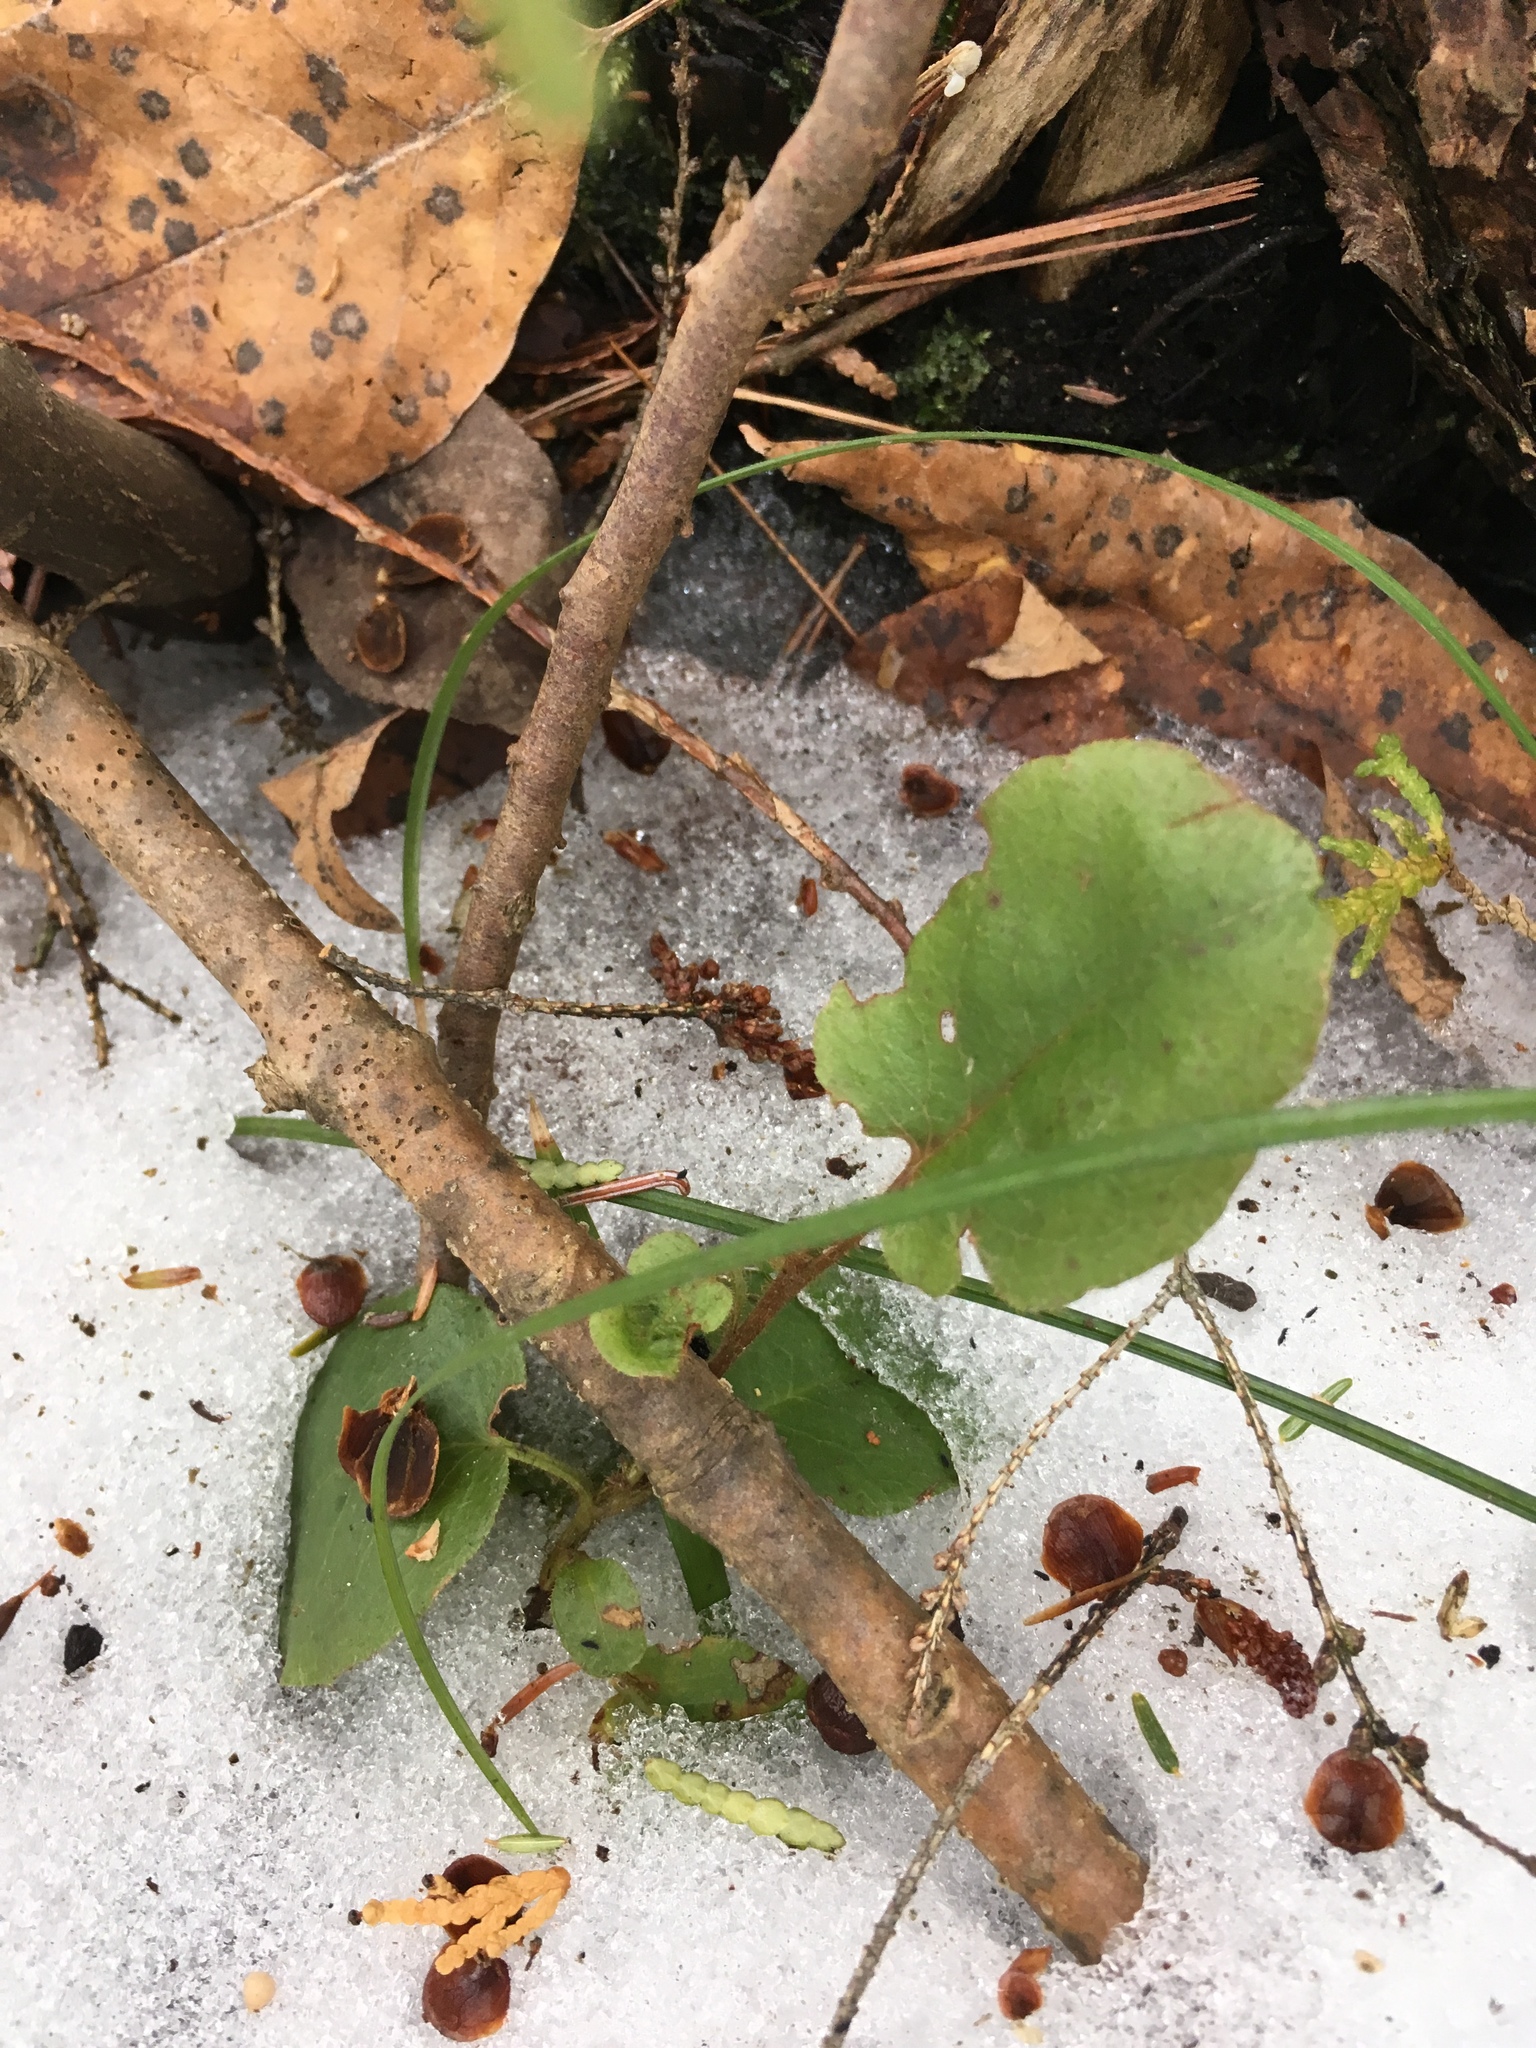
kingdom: Plantae
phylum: Tracheophyta
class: Magnoliopsida
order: Ericales
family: Ericaceae
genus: Epigaea
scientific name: Epigaea repens
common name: Gravelroot
